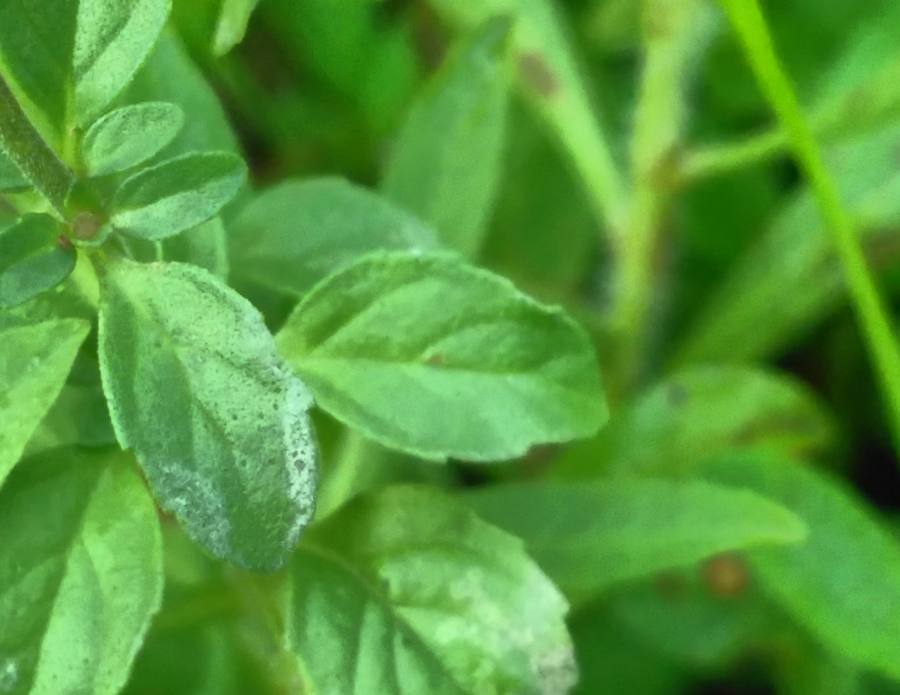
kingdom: Plantae
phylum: Tracheophyta
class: Magnoliopsida
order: Lamiales
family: Lamiaceae
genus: Mentha
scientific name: Mentha pulegium
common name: Pennyroyal
